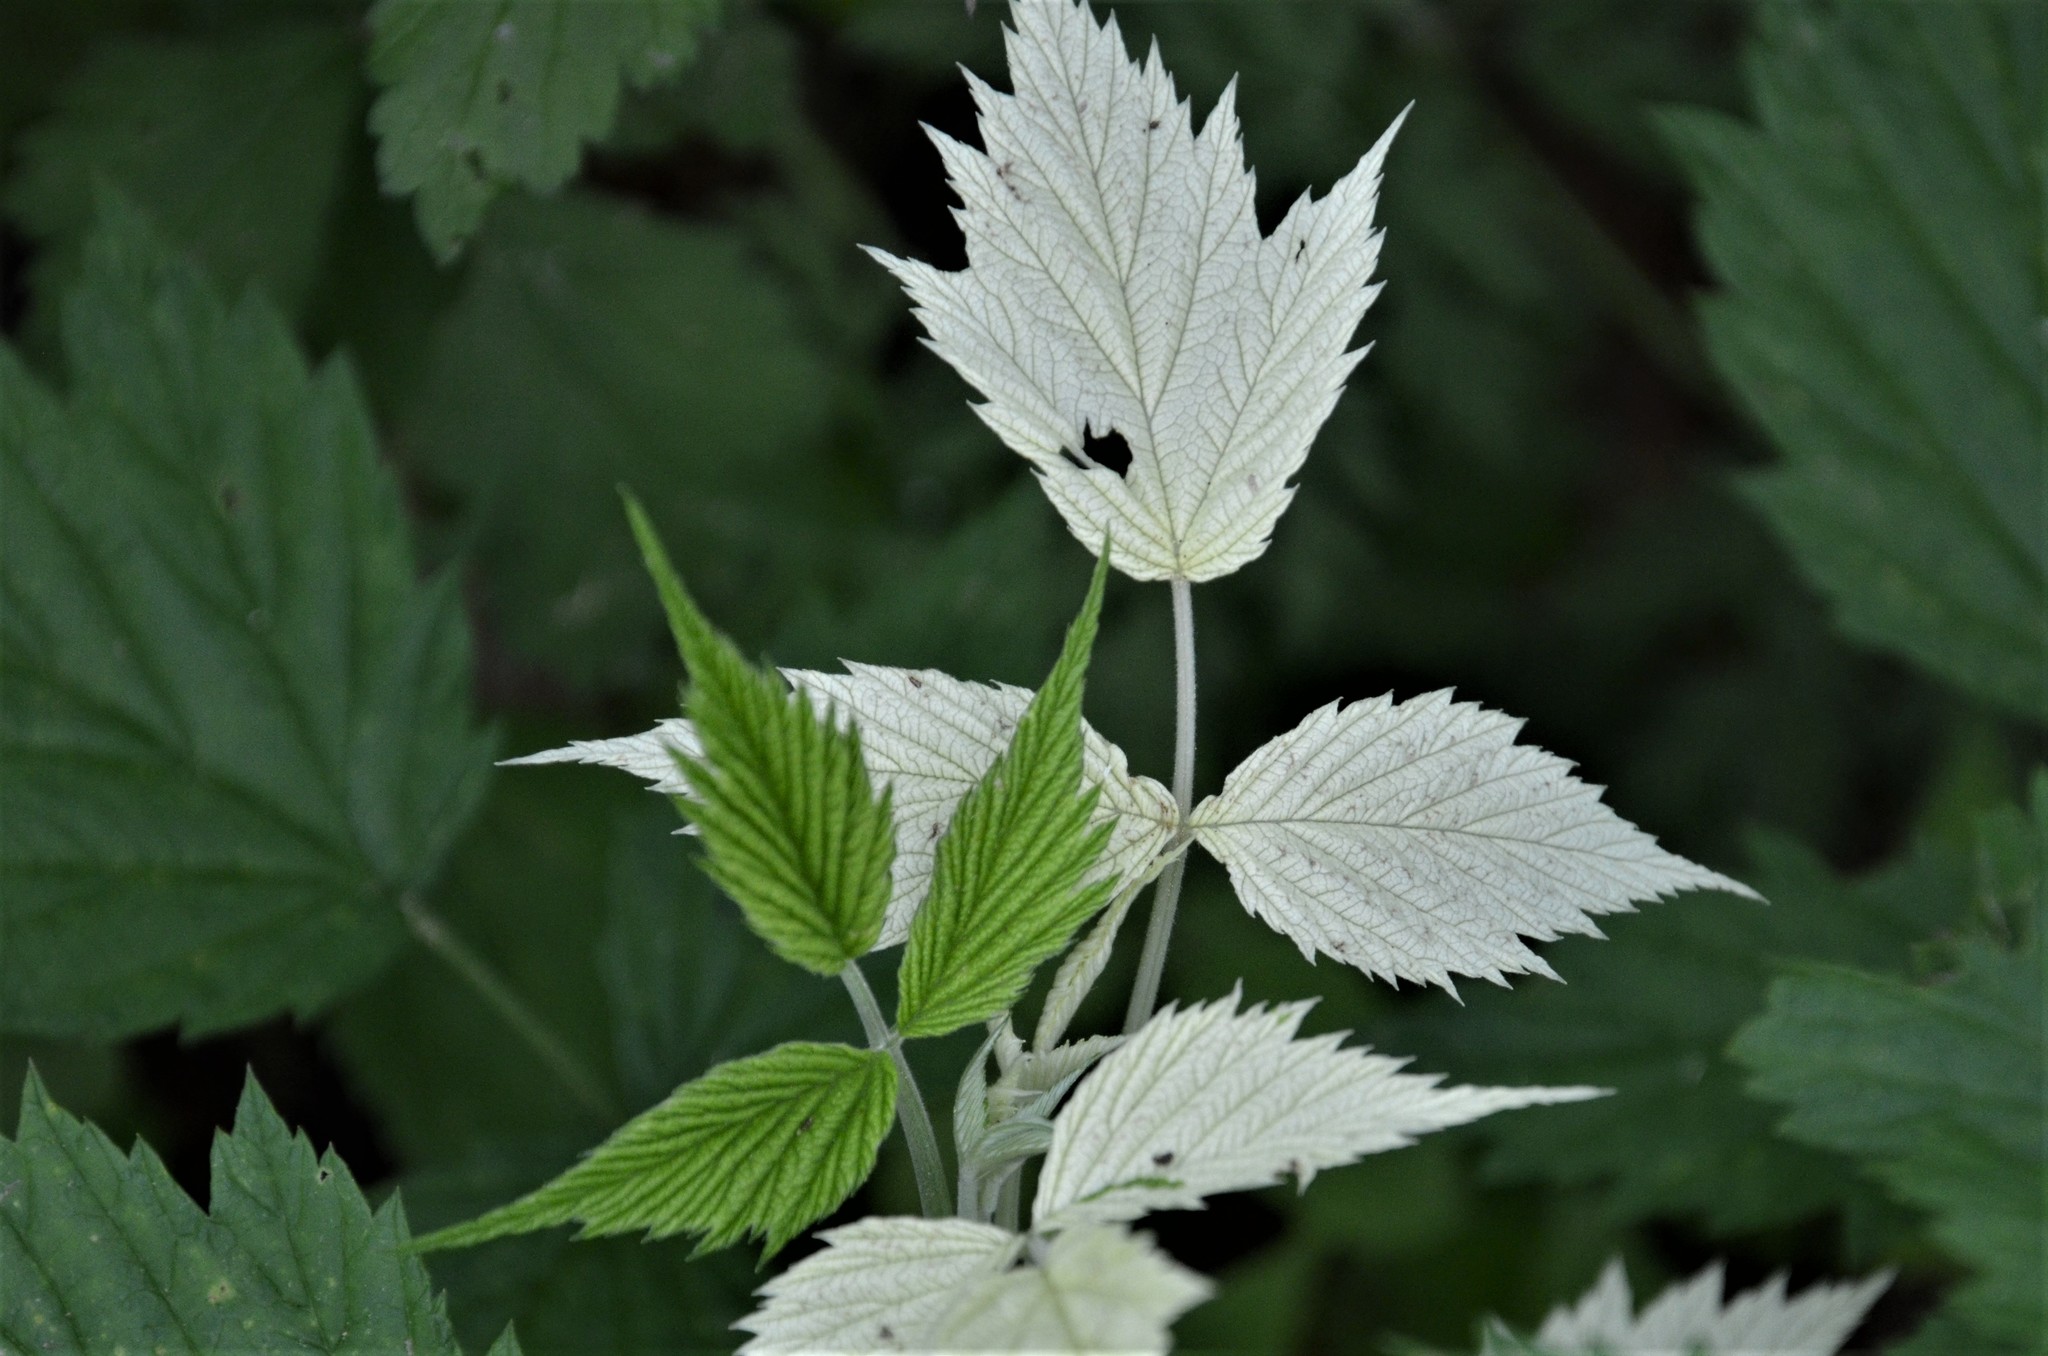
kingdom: Plantae
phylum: Tracheophyta
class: Magnoliopsida
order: Rosales
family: Rosaceae
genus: Rubus
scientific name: Rubus idaeus
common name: Raspberry
